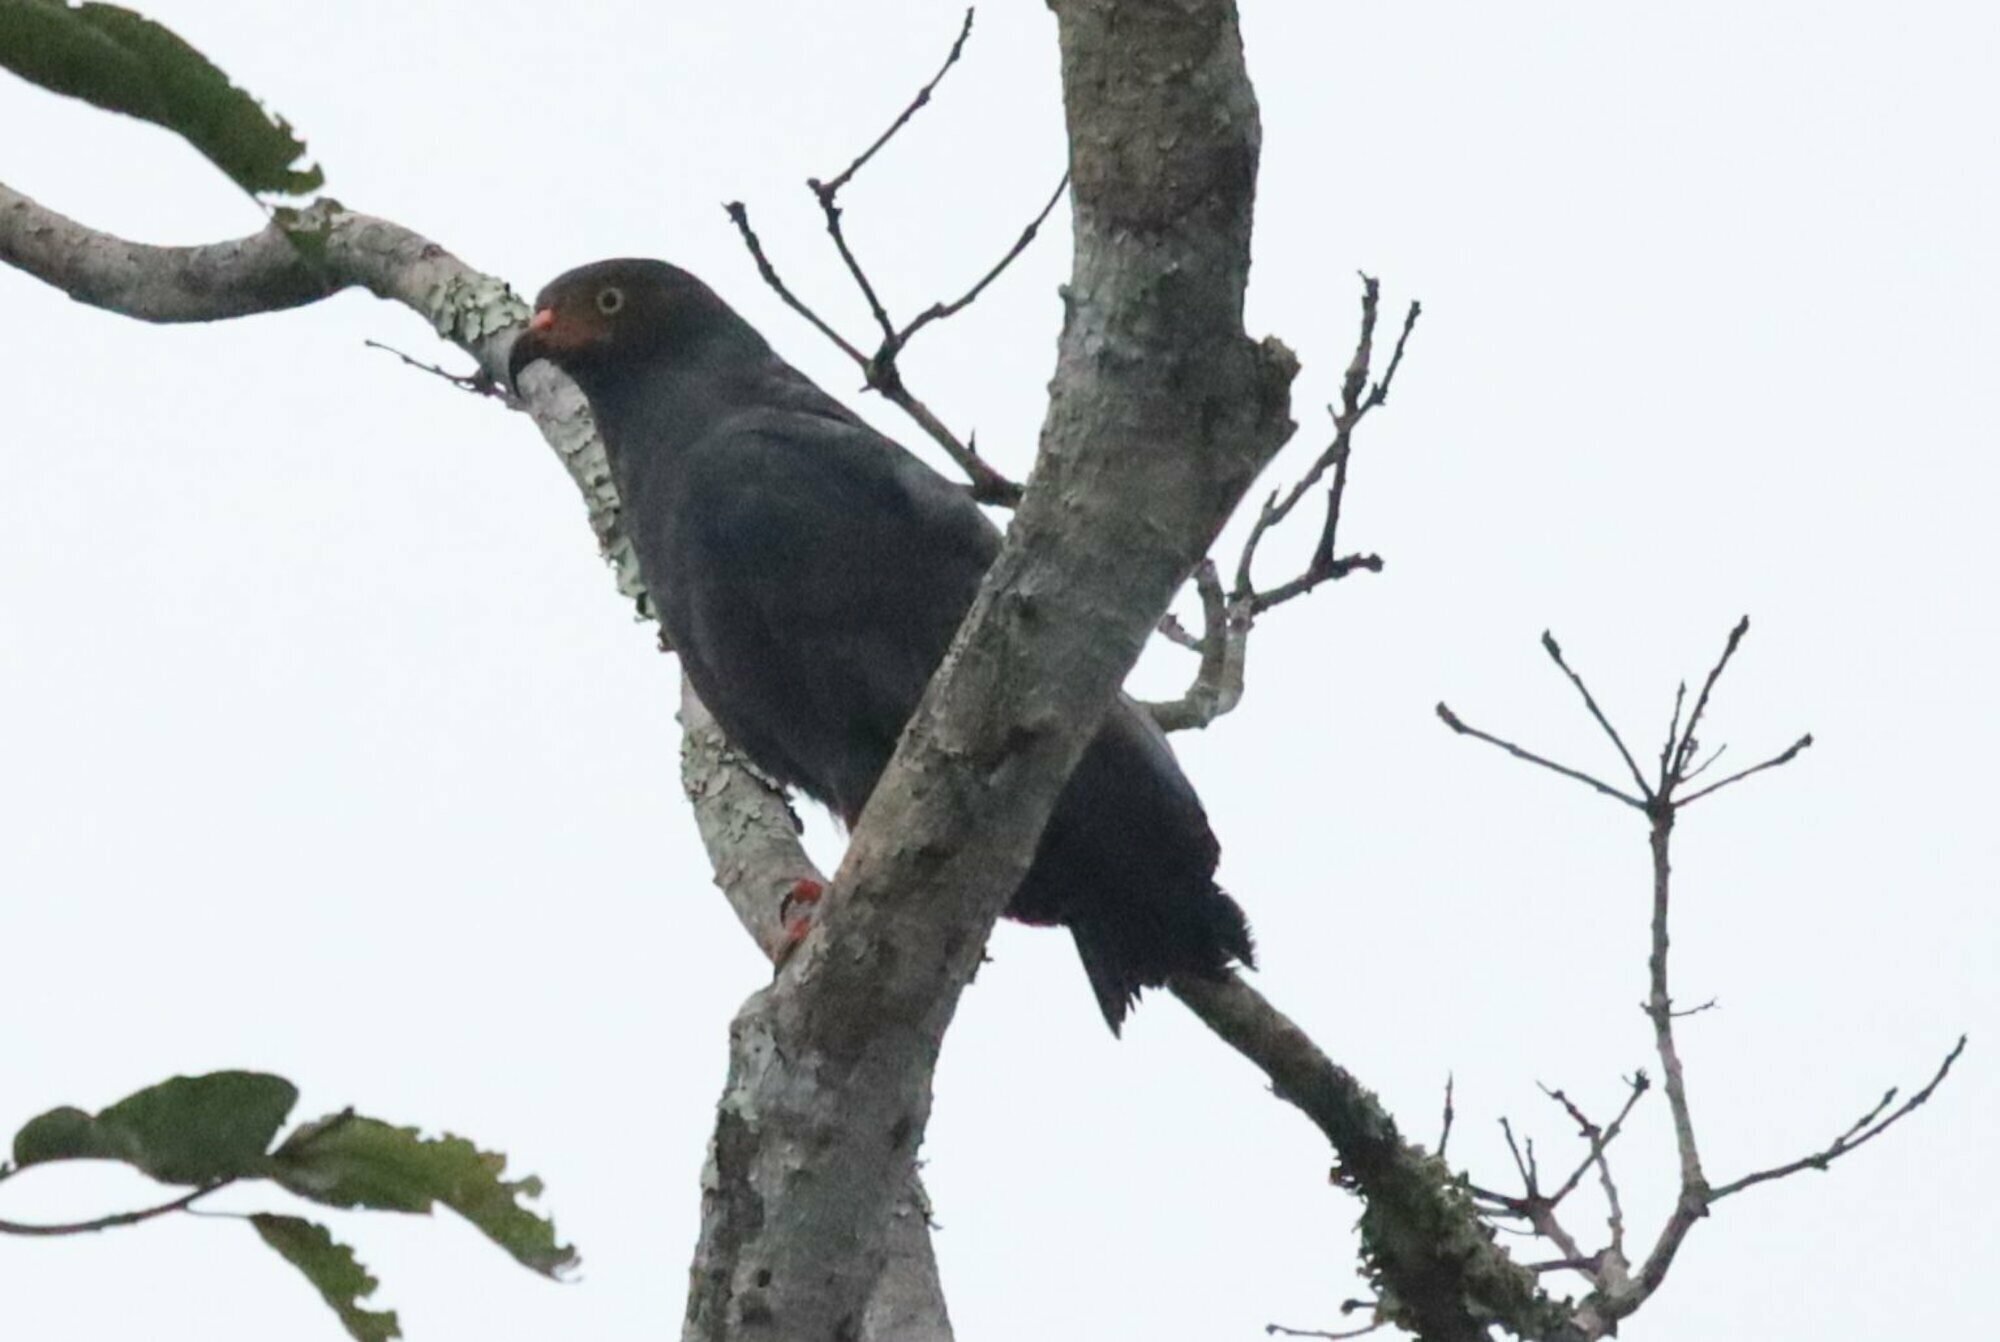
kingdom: Animalia
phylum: Chordata
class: Aves
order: Accipitriformes
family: Accipitridae
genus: Helicolestes
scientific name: Helicolestes hamatus
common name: Slender-billed kite
